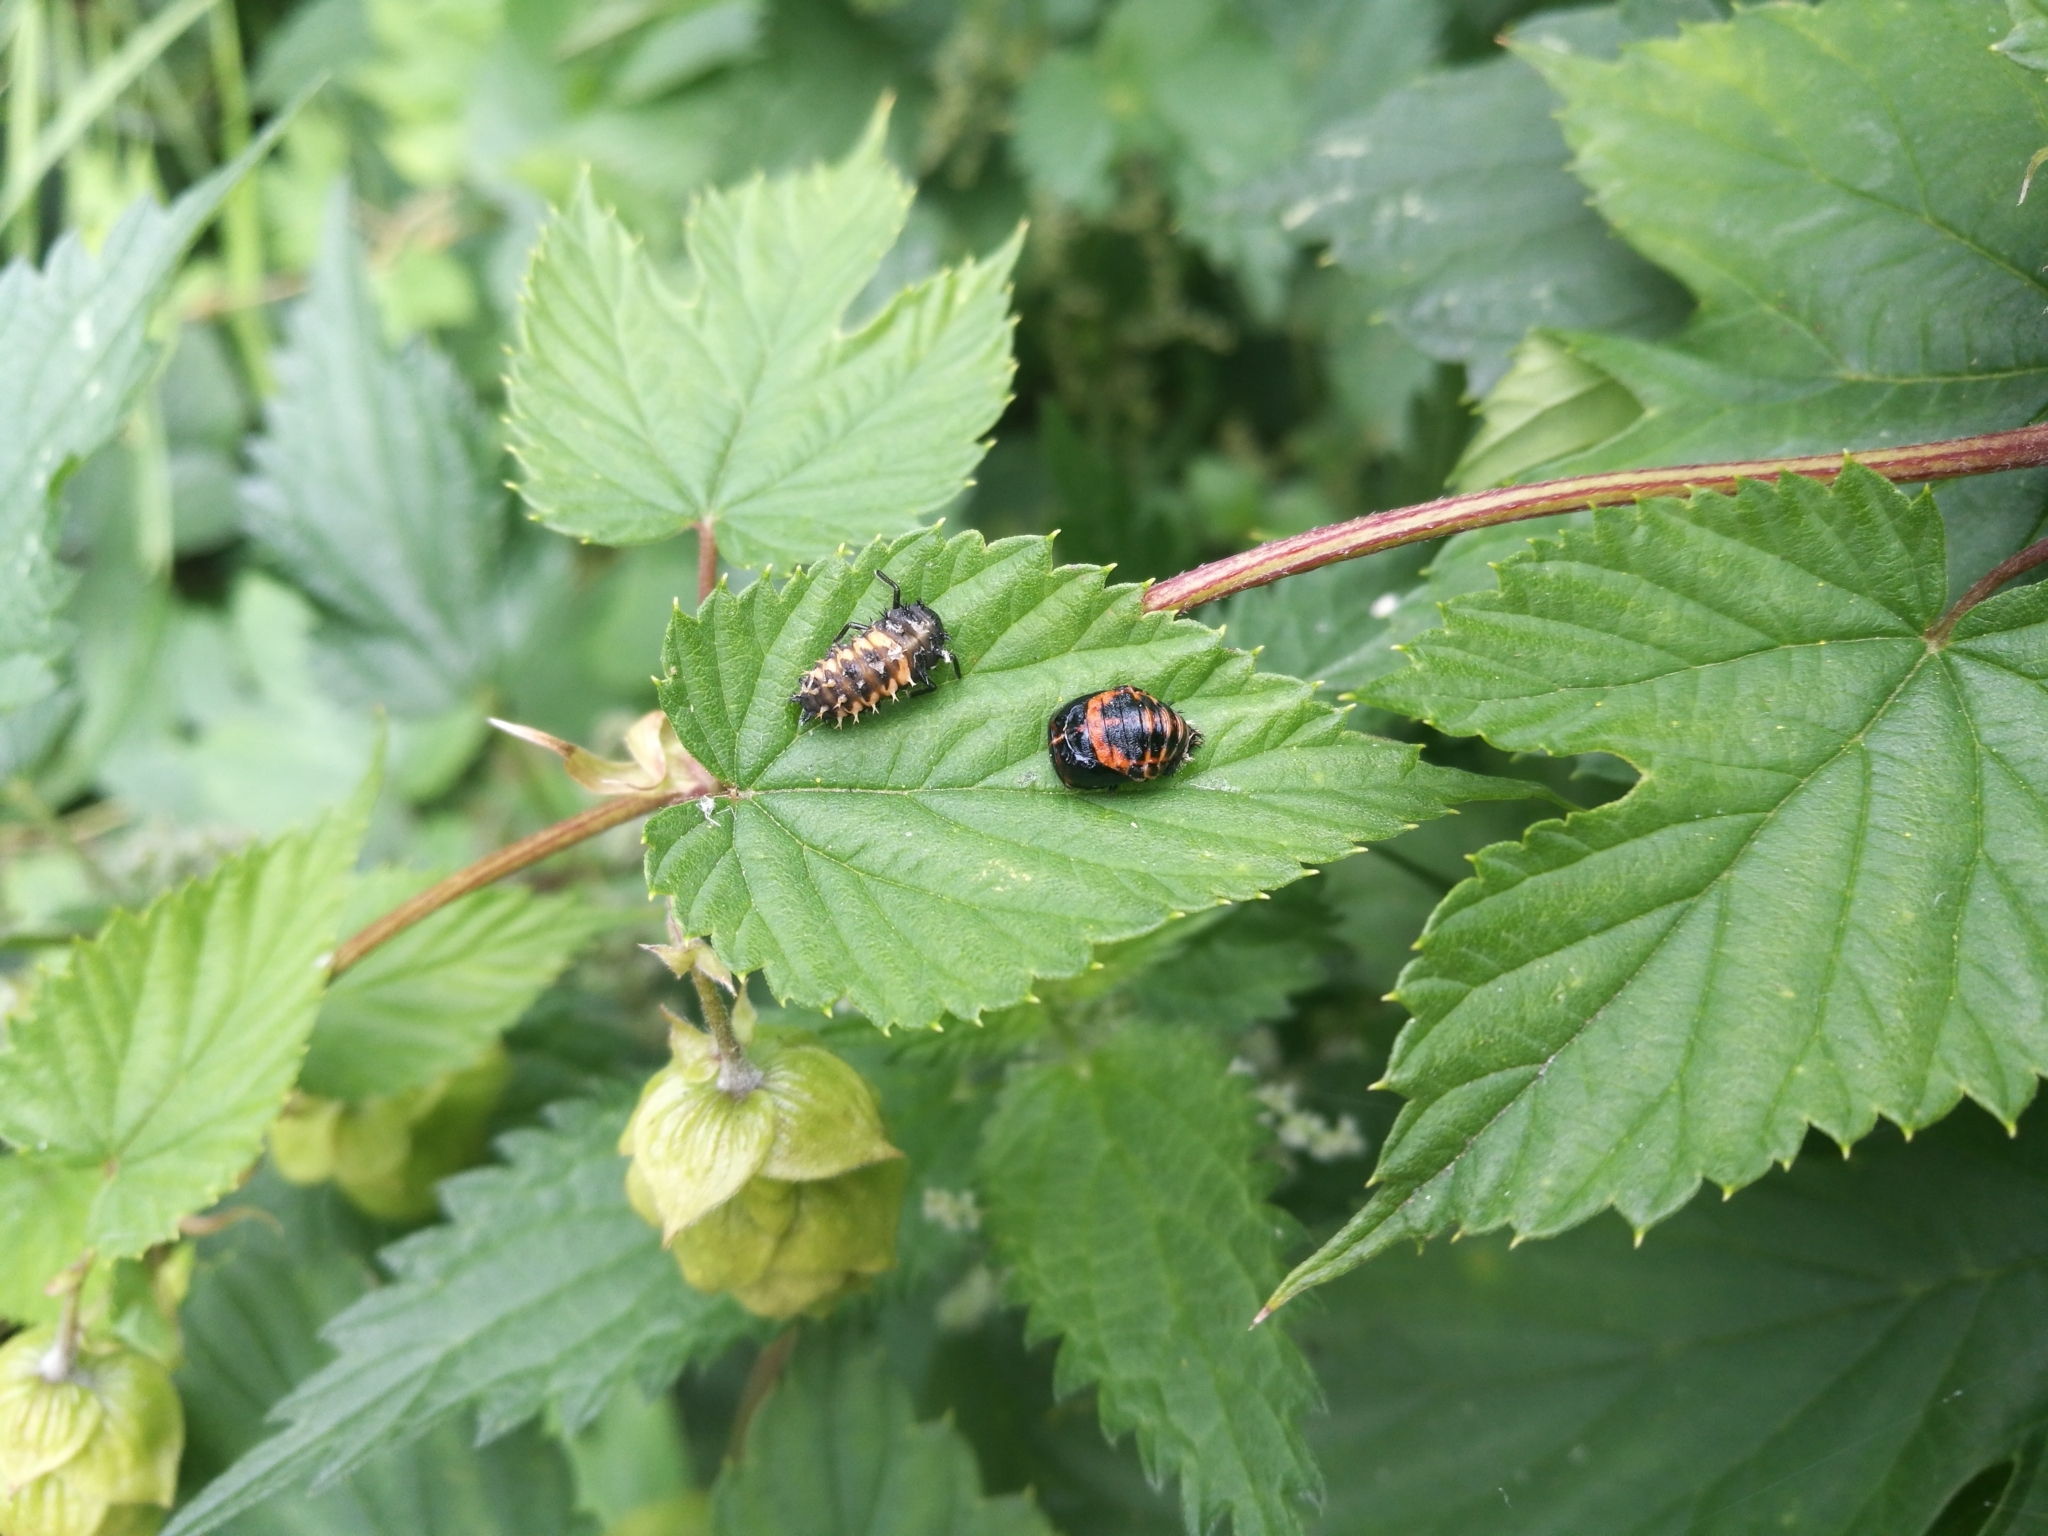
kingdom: Animalia
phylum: Arthropoda
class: Insecta
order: Coleoptera
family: Coccinellidae
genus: Harmonia
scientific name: Harmonia axyridis
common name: Harlequin ladybird
